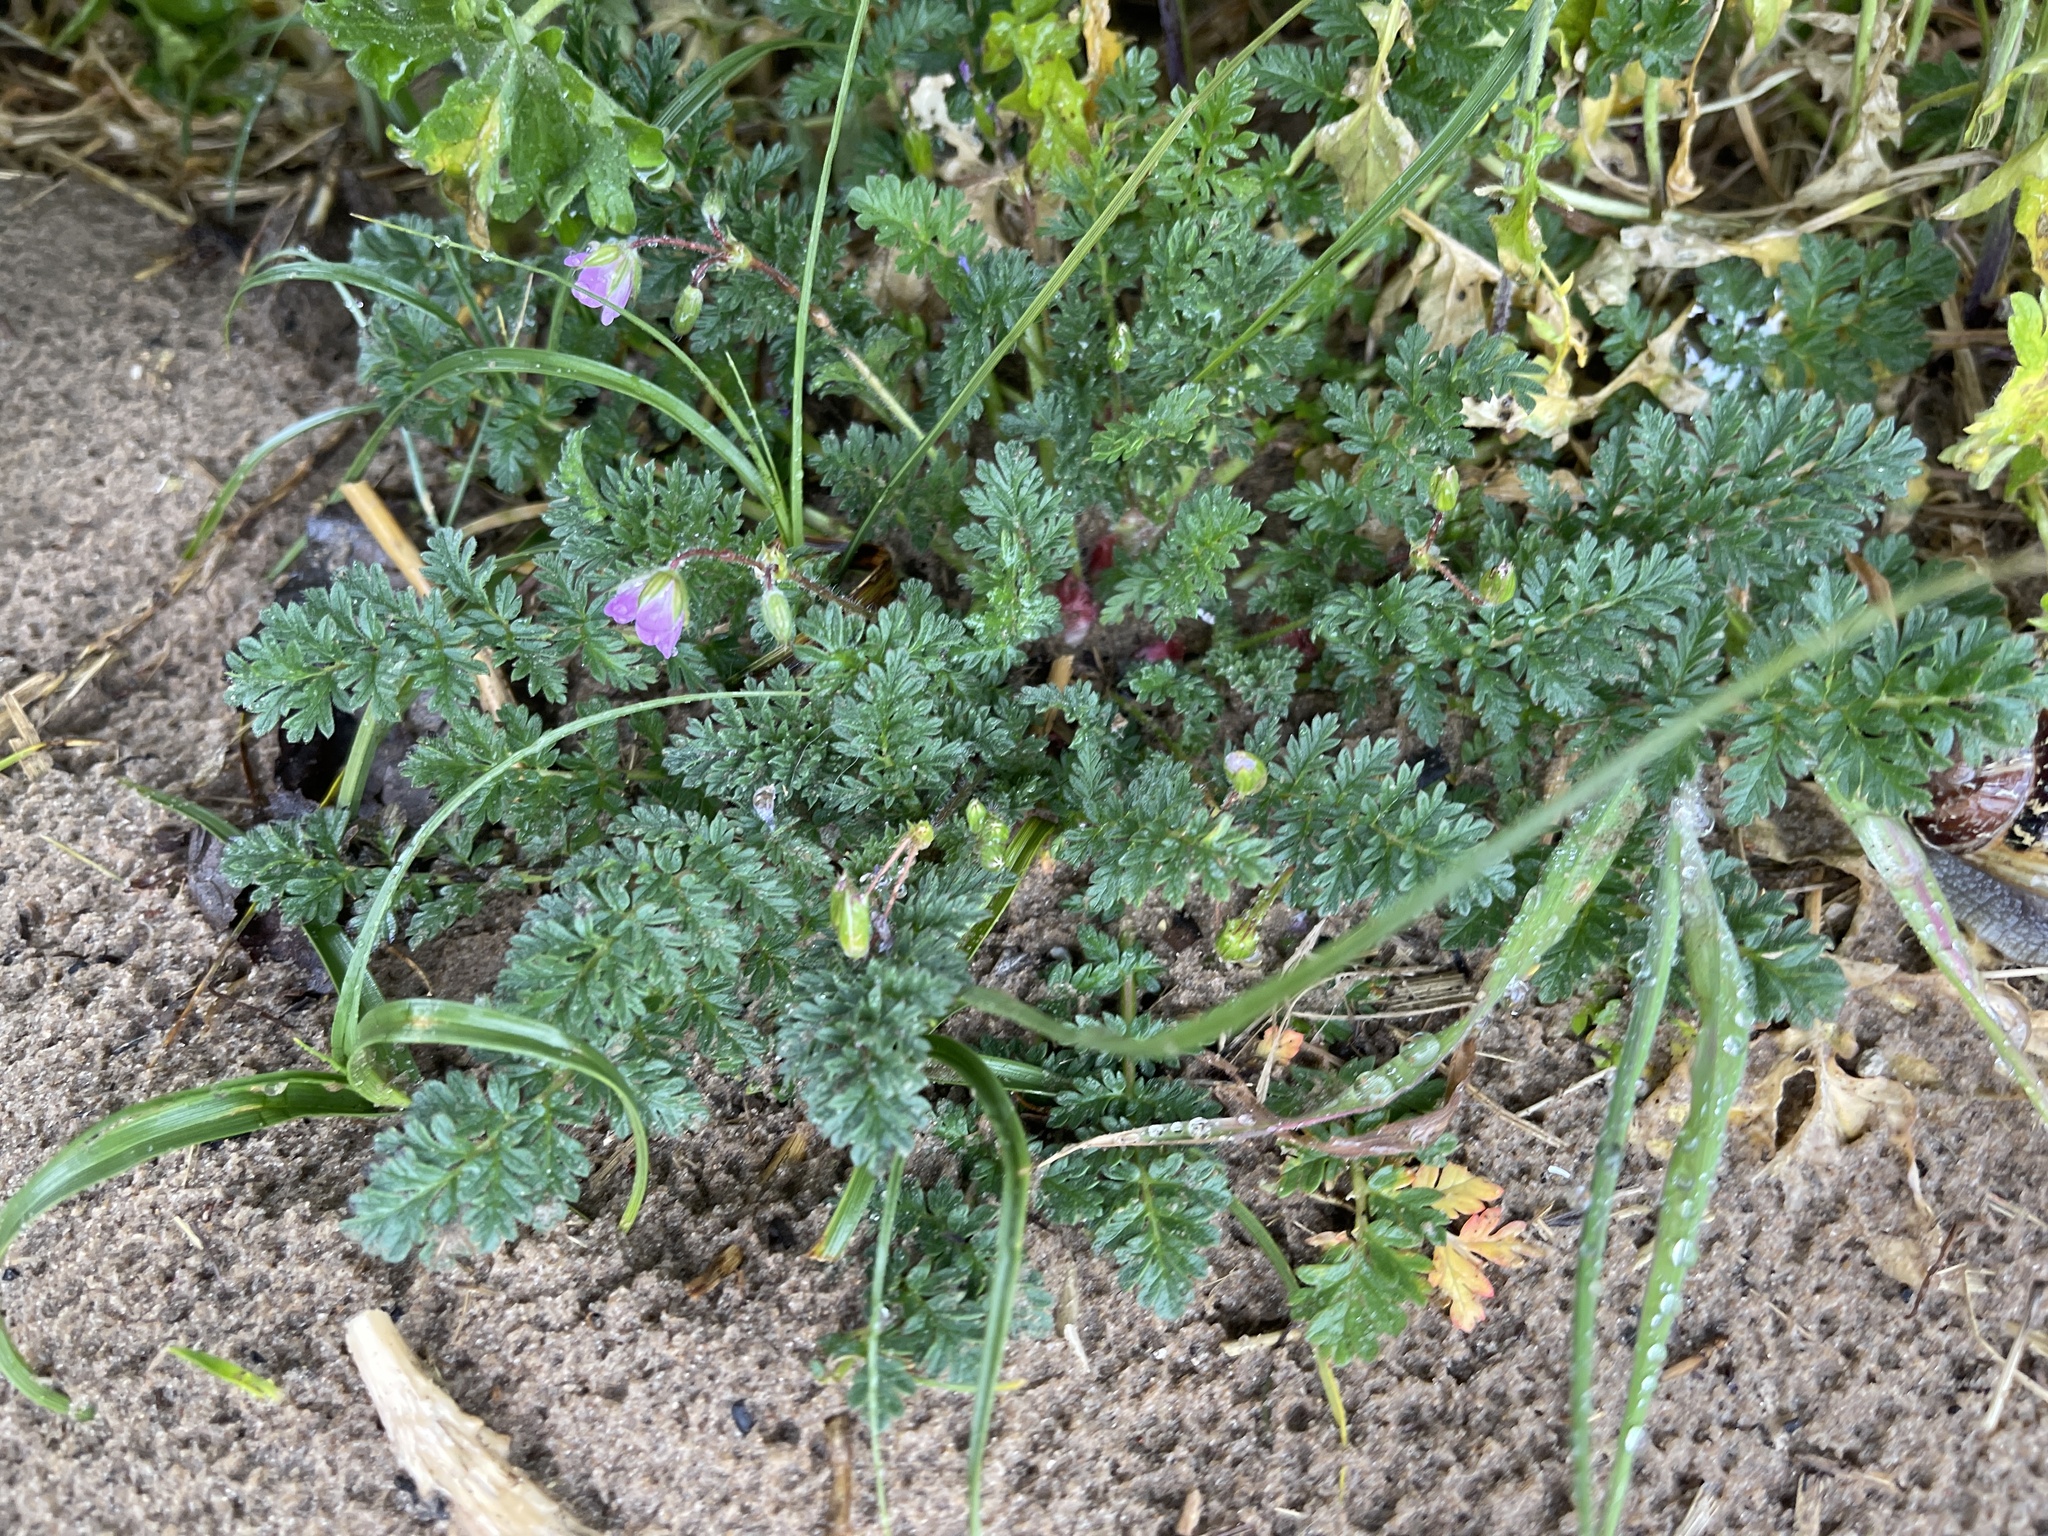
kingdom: Plantae
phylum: Tracheophyta
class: Magnoliopsida
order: Geraniales
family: Geraniaceae
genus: Erodium
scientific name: Erodium cicutarium
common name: Common stork's-bill
